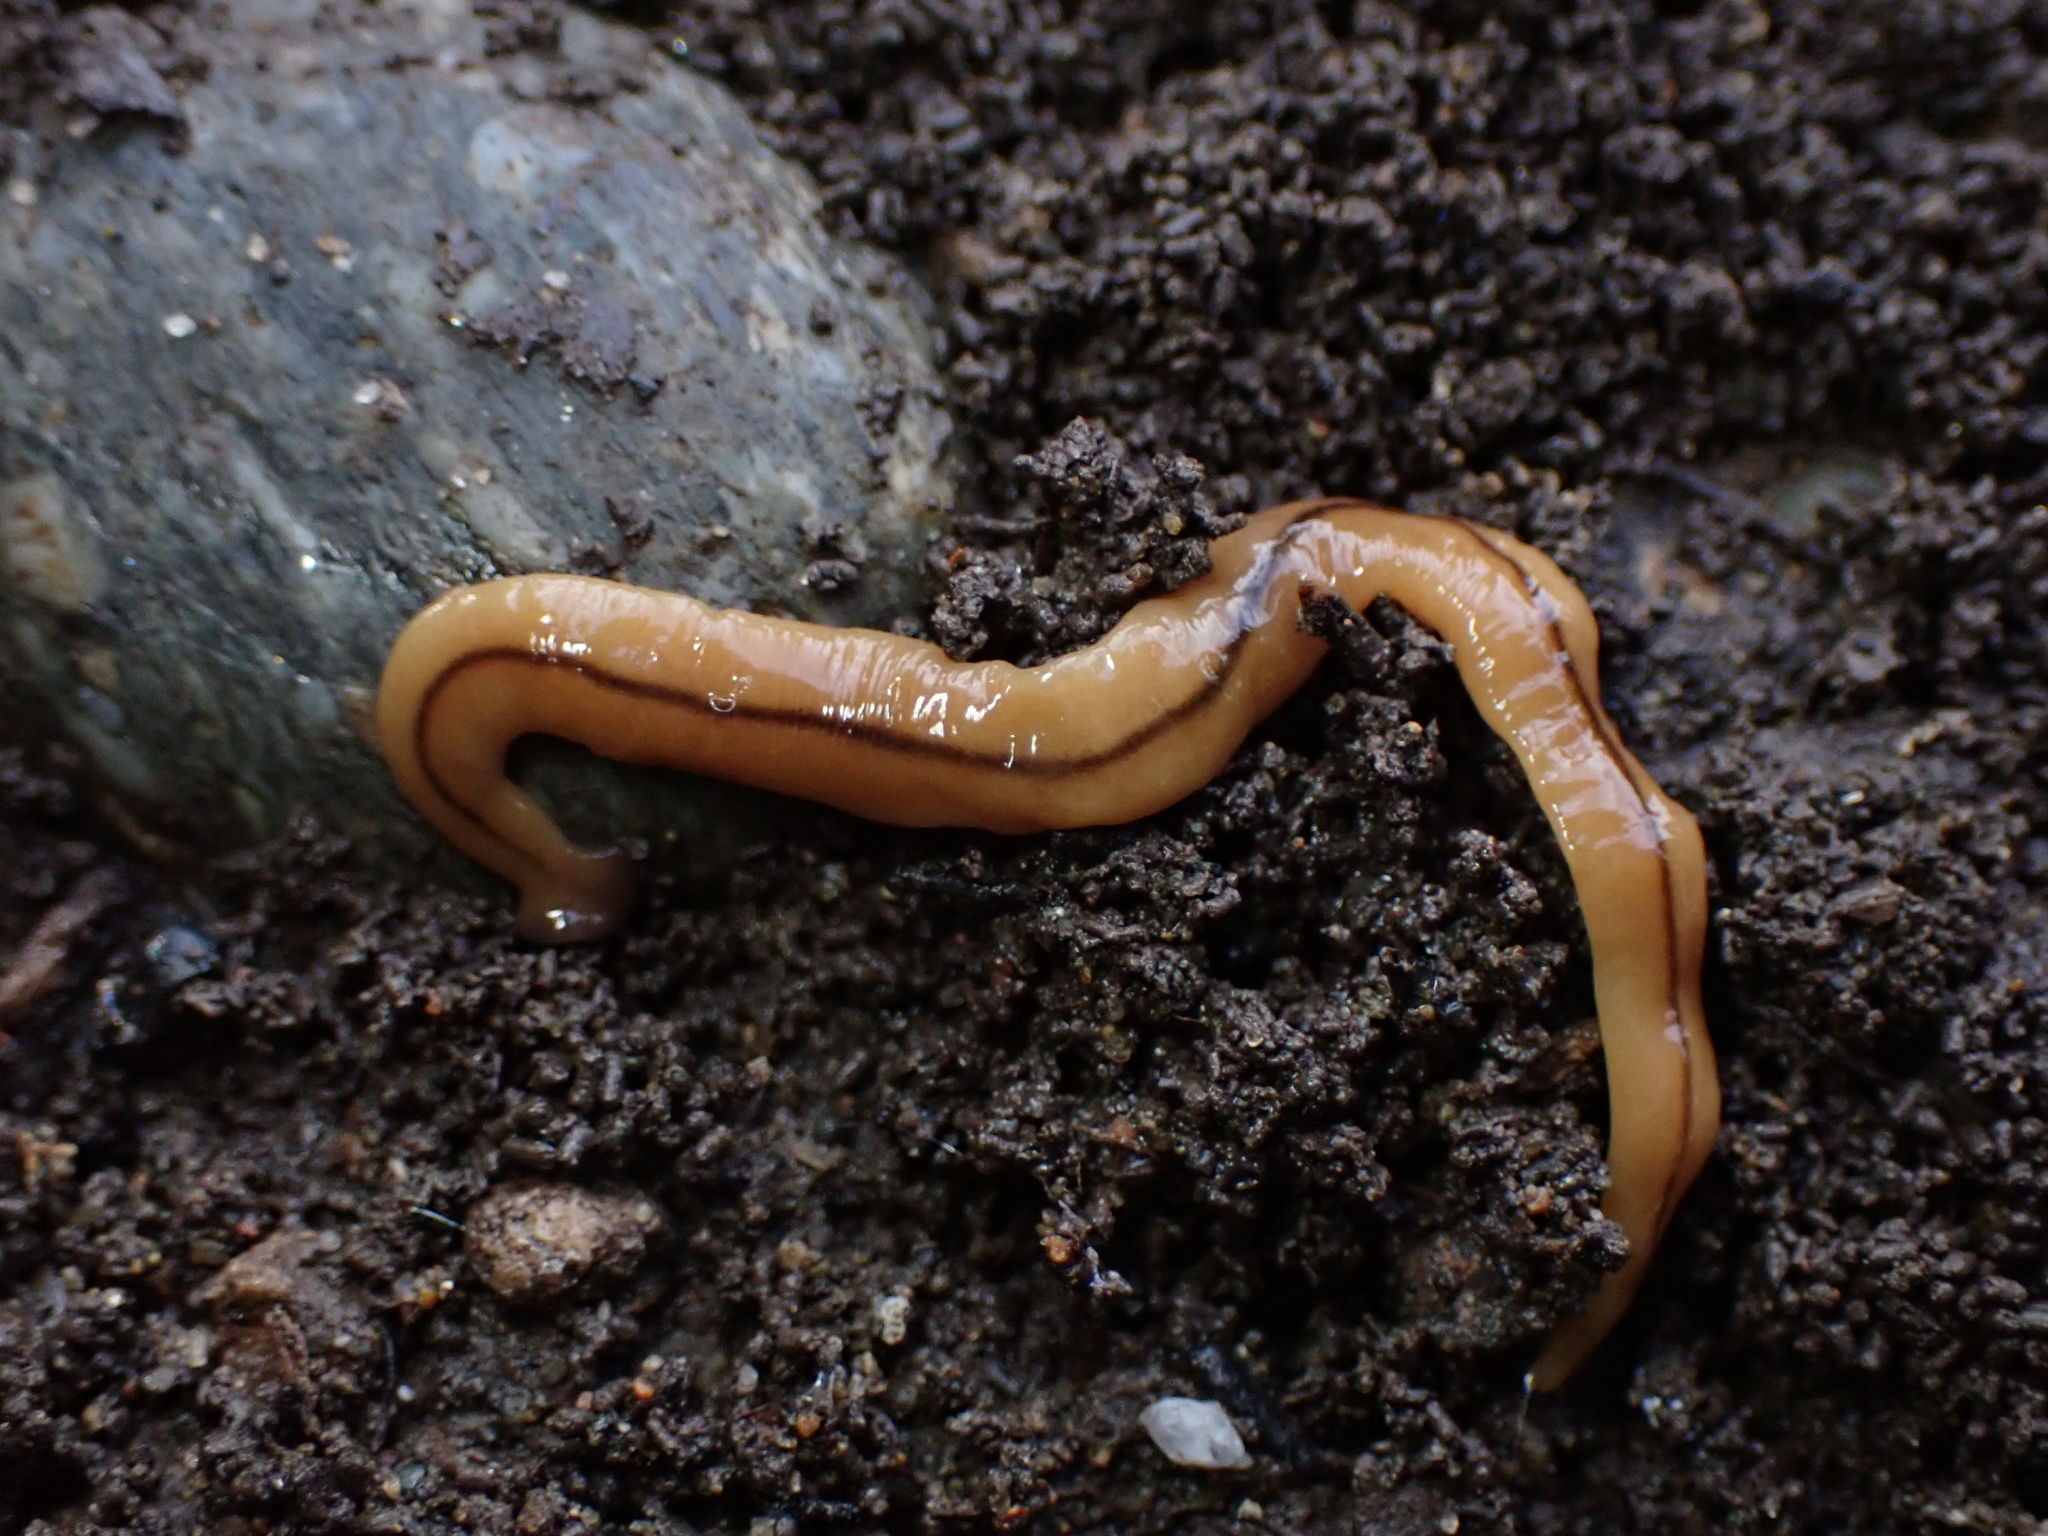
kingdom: Animalia
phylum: Platyhelminthes
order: Tricladida
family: Geoplanidae
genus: Bipalium
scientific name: Bipalium adventitium
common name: Land planarian
